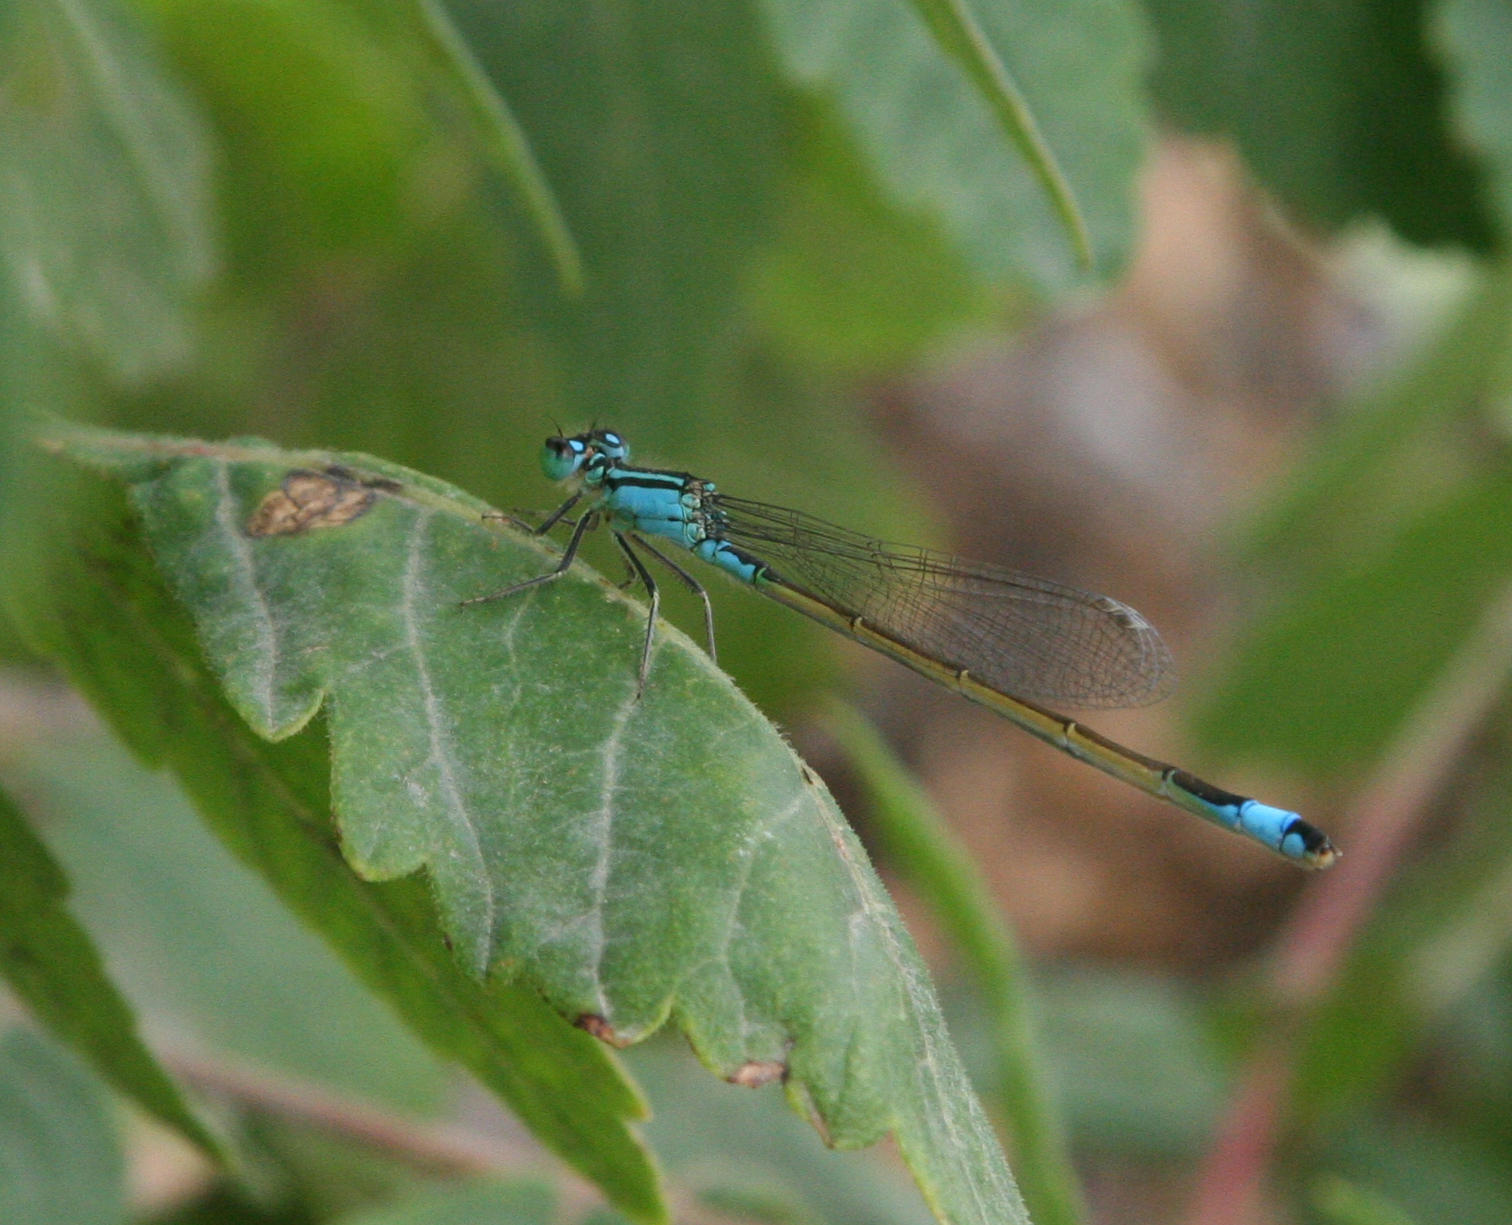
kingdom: Animalia
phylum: Arthropoda
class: Insecta
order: Odonata
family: Coenagrionidae
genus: Ischnura
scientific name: Ischnura elegans
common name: Blue-tailed damselfly
